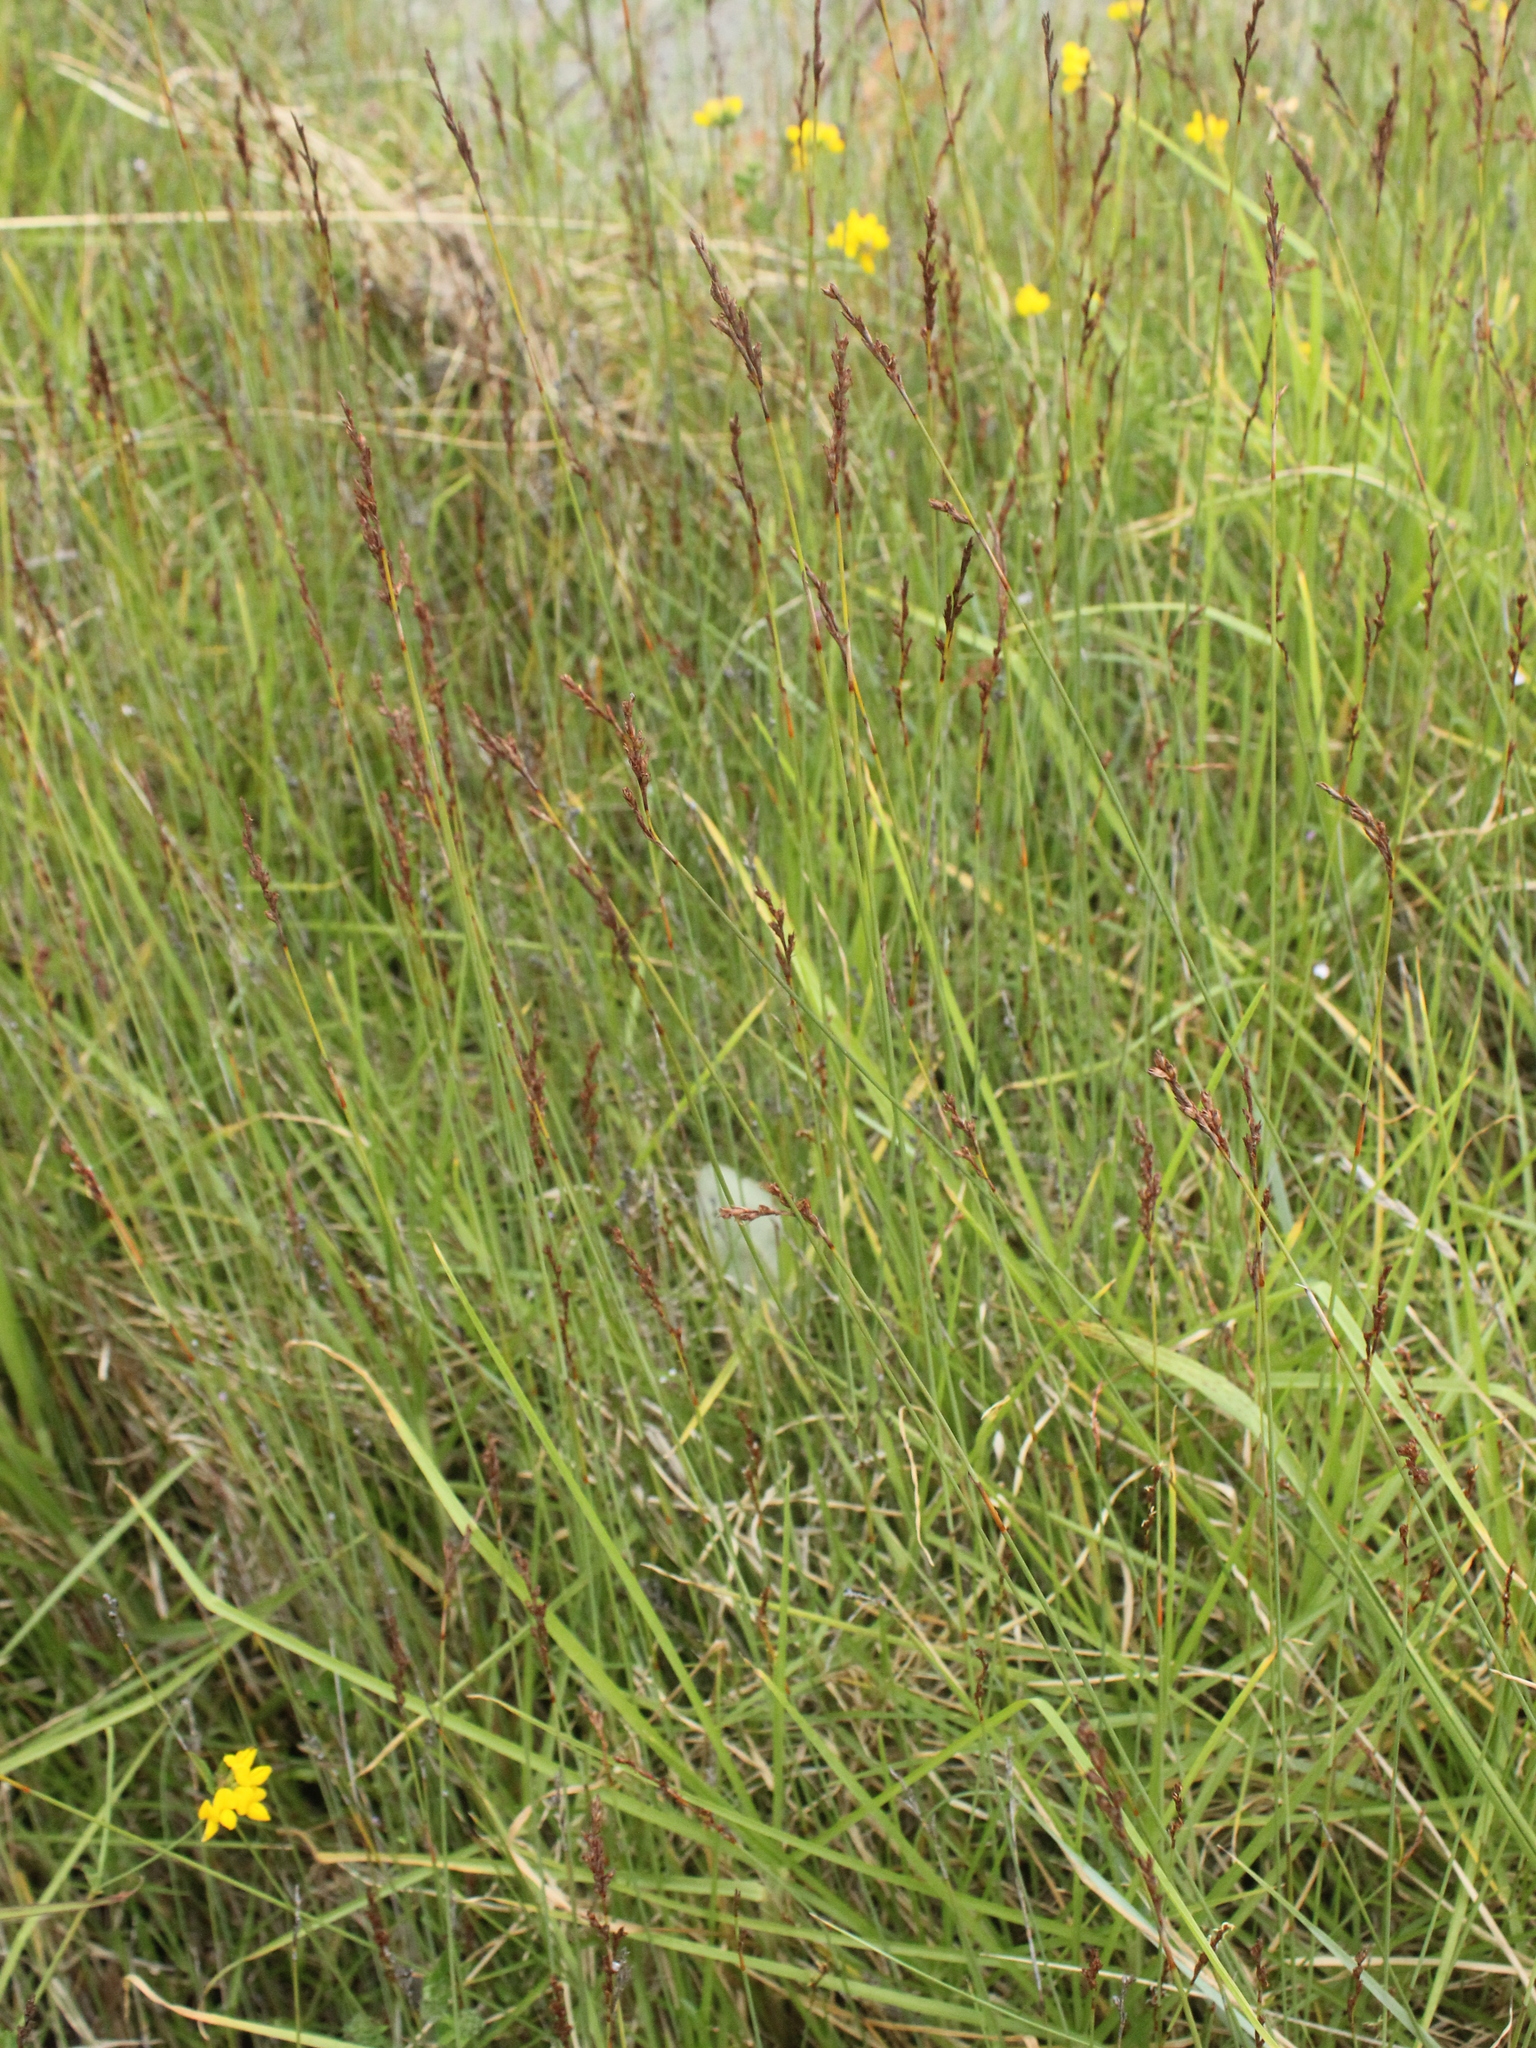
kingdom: Plantae
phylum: Tracheophyta
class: Liliopsida
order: Poales
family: Cyperaceae
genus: Machaerina
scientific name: Machaerina juncea
